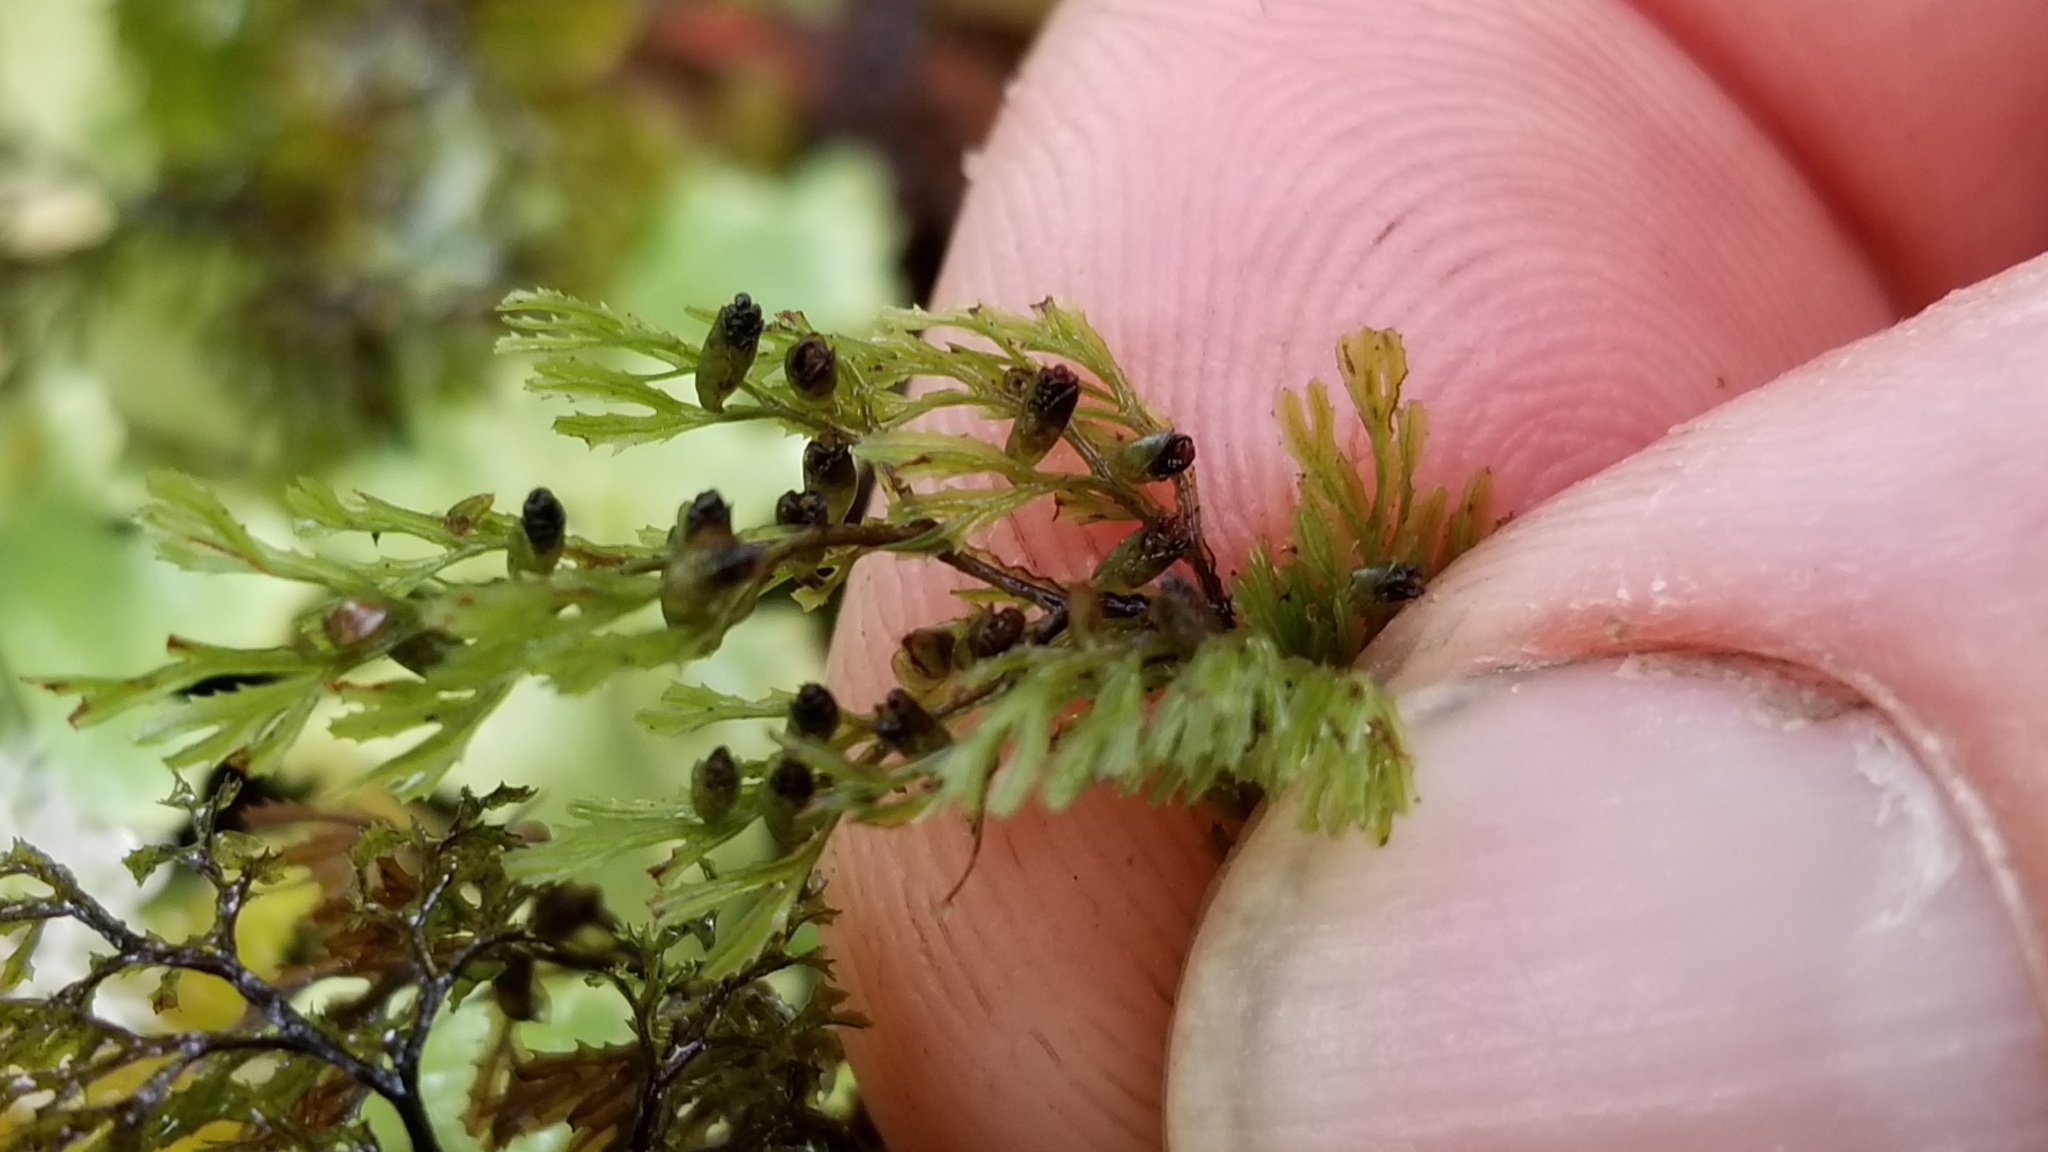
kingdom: Plantae
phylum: Tracheophyta
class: Polypodiopsida
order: Hymenophyllales
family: Hymenophyllaceae
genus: Hymenophyllum
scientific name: Hymenophyllum multifidum
